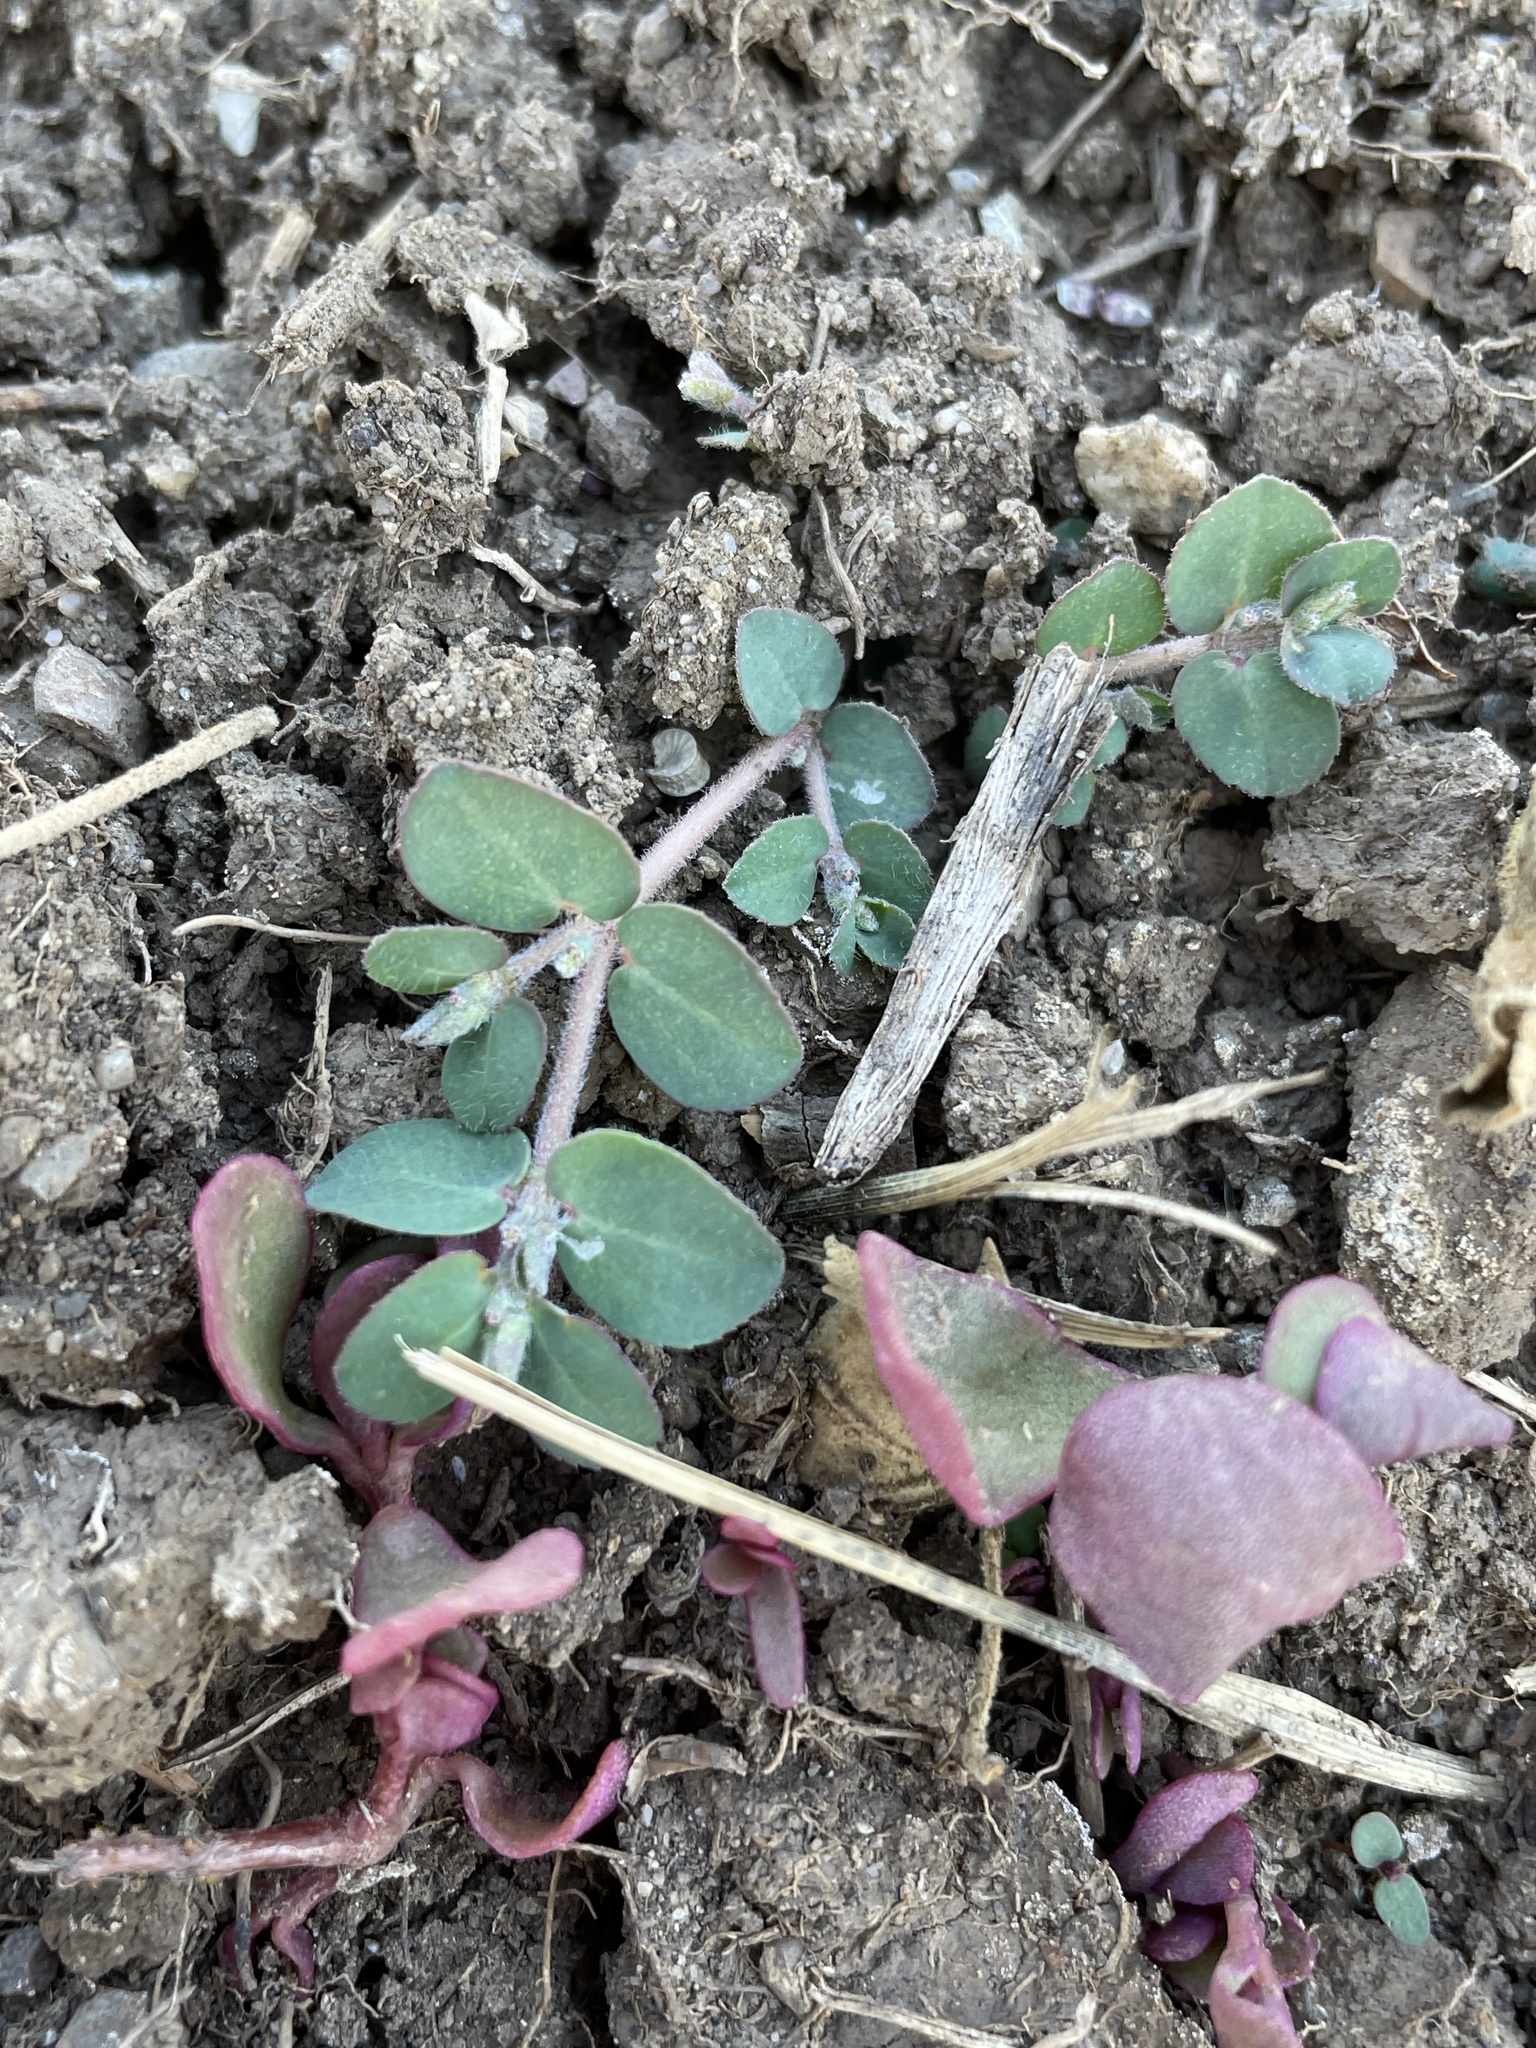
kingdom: Plantae
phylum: Tracheophyta
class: Magnoliopsida
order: Malpighiales
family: Euphorbiaceae
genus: Euphorbia
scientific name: Euphorbia prostrata
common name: Prostrate sandmat
